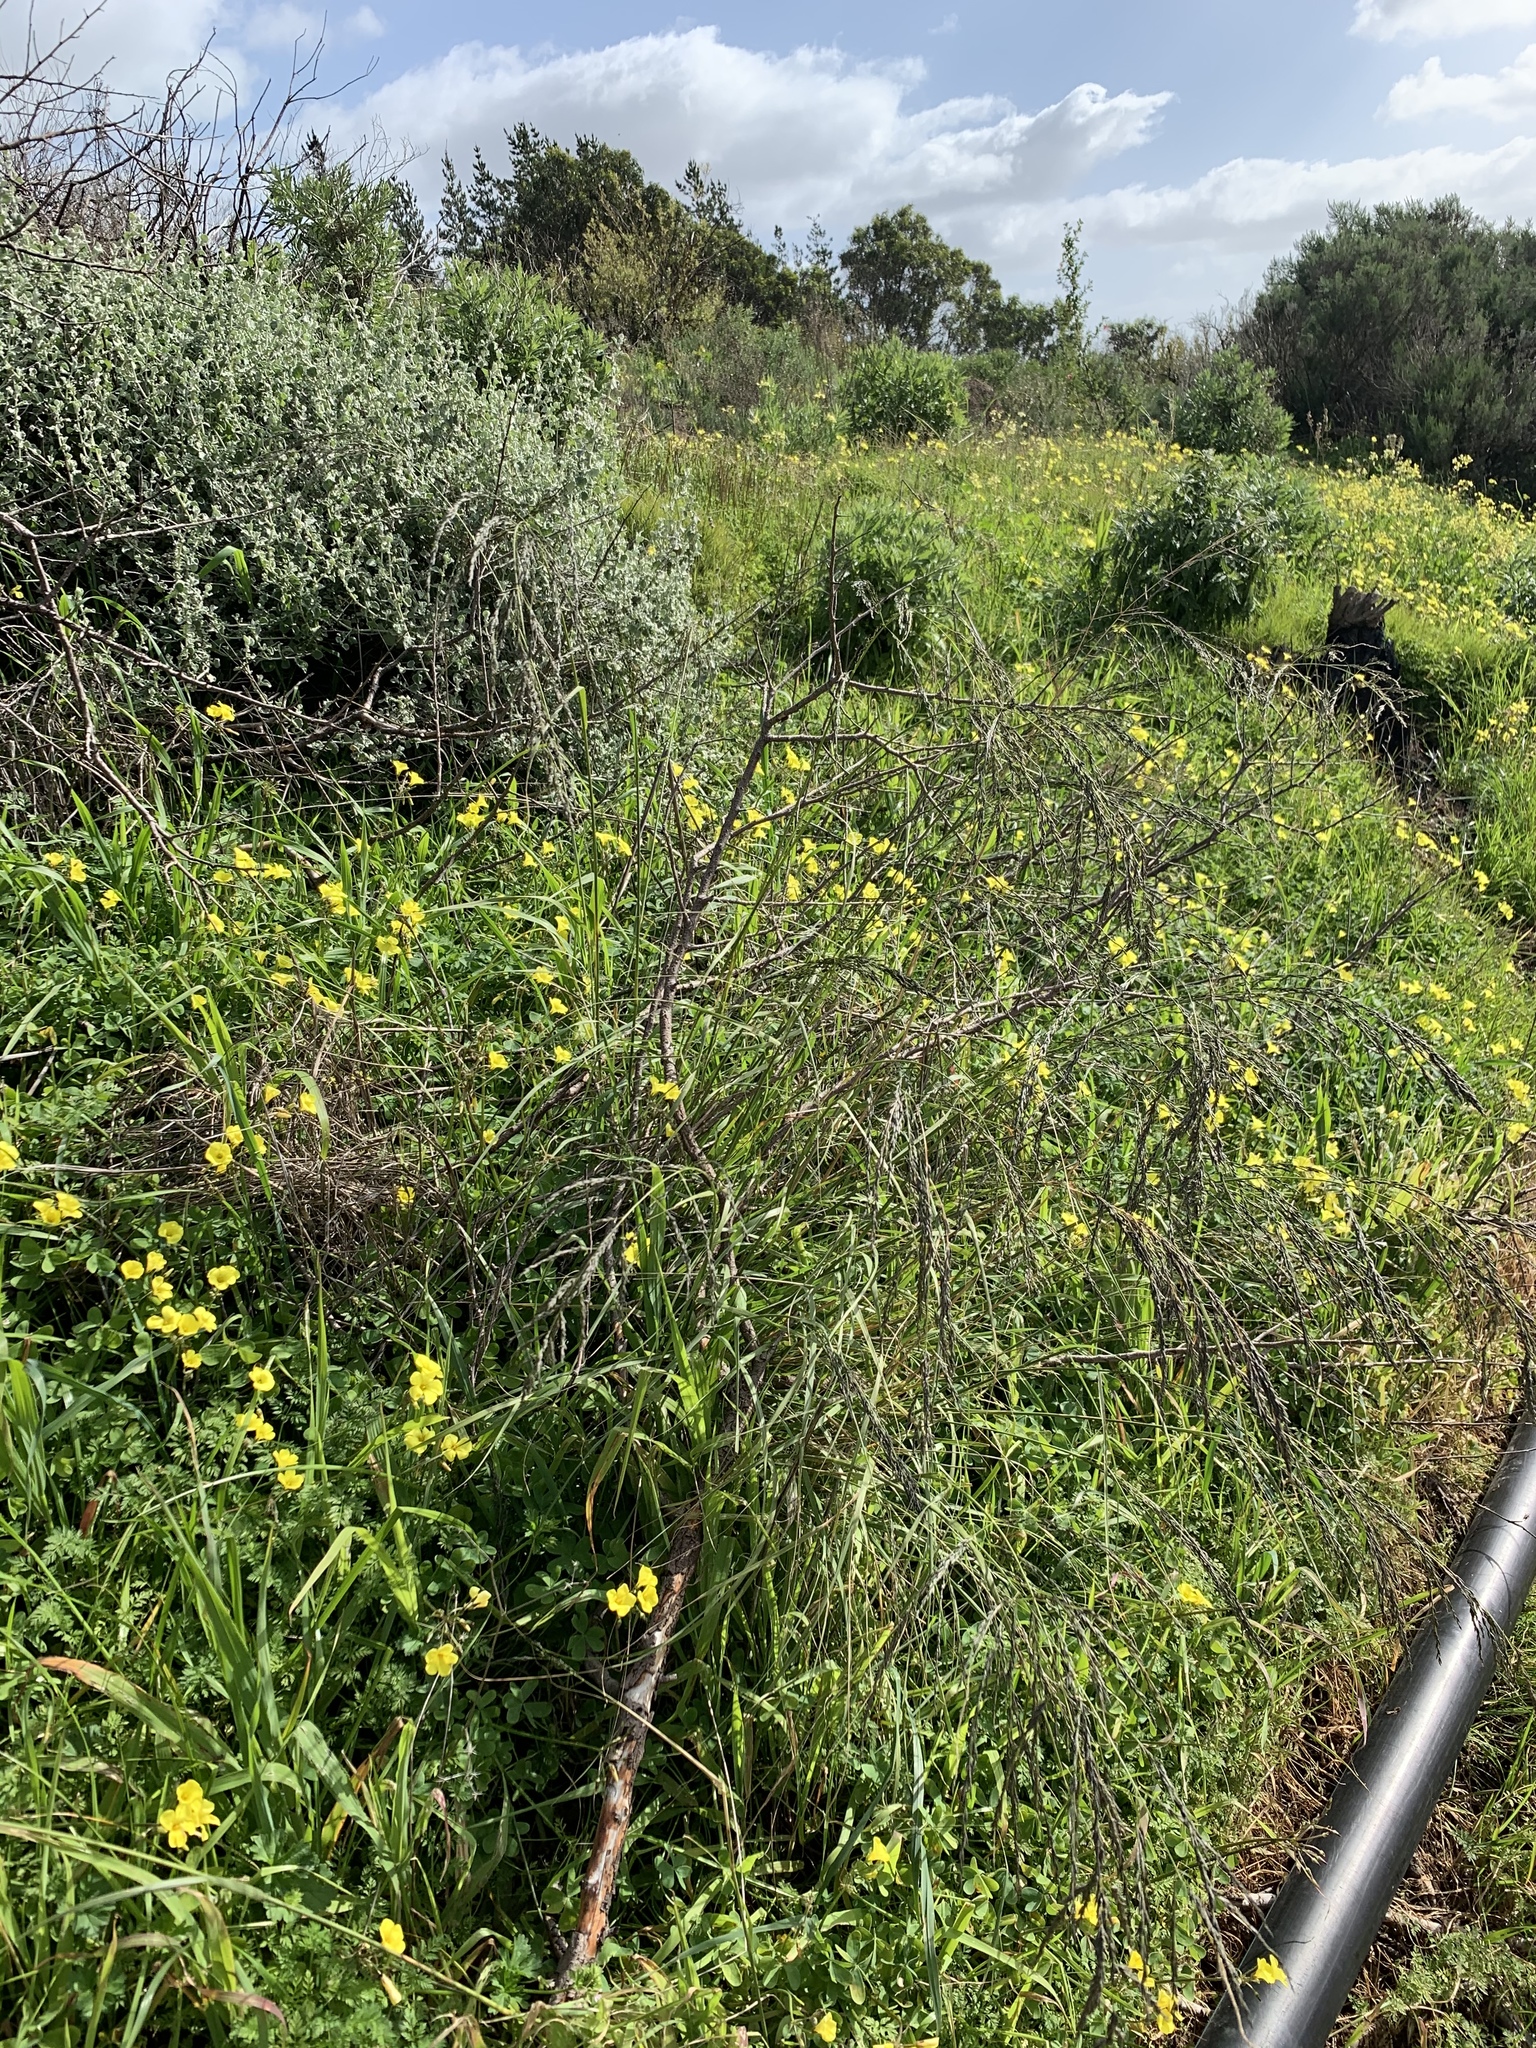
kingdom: Plantae
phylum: Tracheophyta
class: Liliopsida
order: Poales
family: Poaceae
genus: Eragrostis
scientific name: Eragrostis curvula
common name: African love-grass
